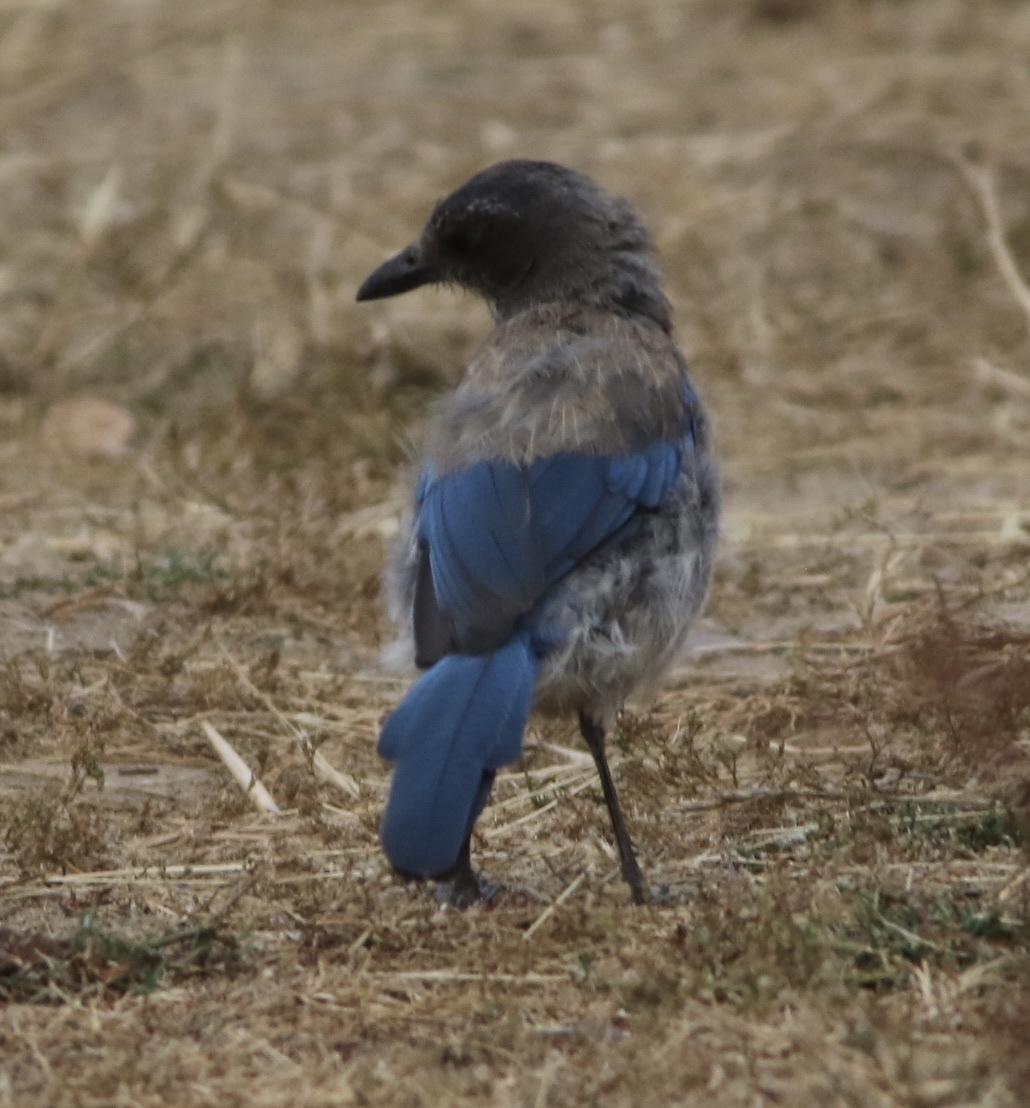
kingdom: Animalia
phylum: Chordata
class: Aves
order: Passeriformes
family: Corvidae
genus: Aphelocoma
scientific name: Aphelocoma californica
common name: California scrub-jay
